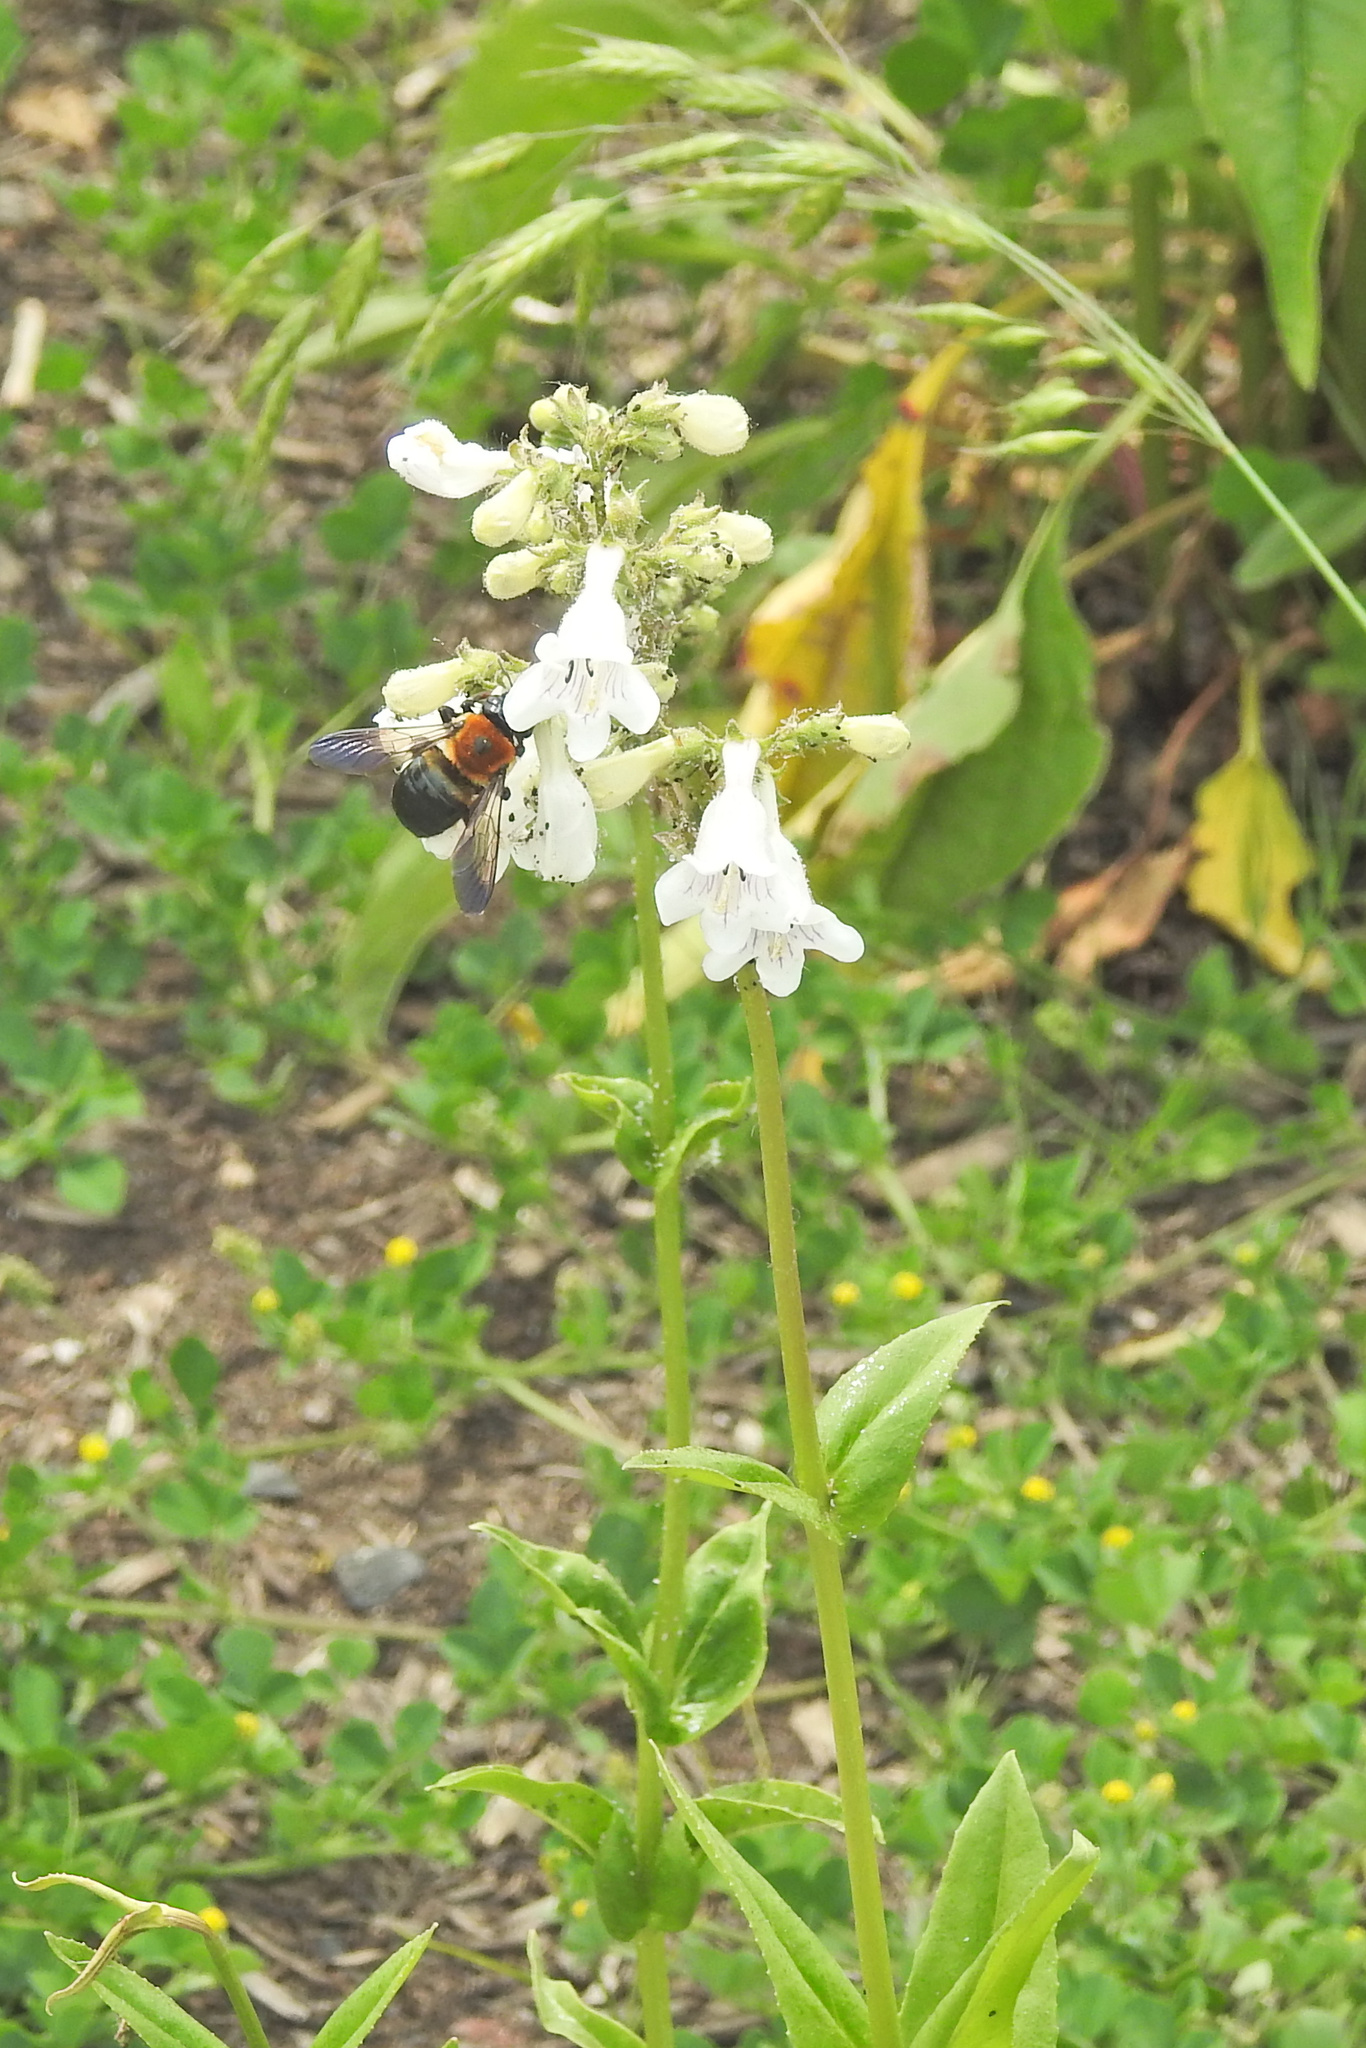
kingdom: Plantae
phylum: Tracheophyta
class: Magnoliopsida
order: Lamiales
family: Plantaginaceae
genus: Penstemon
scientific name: Penstemon digitalis
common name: Foxglove beardtongue
